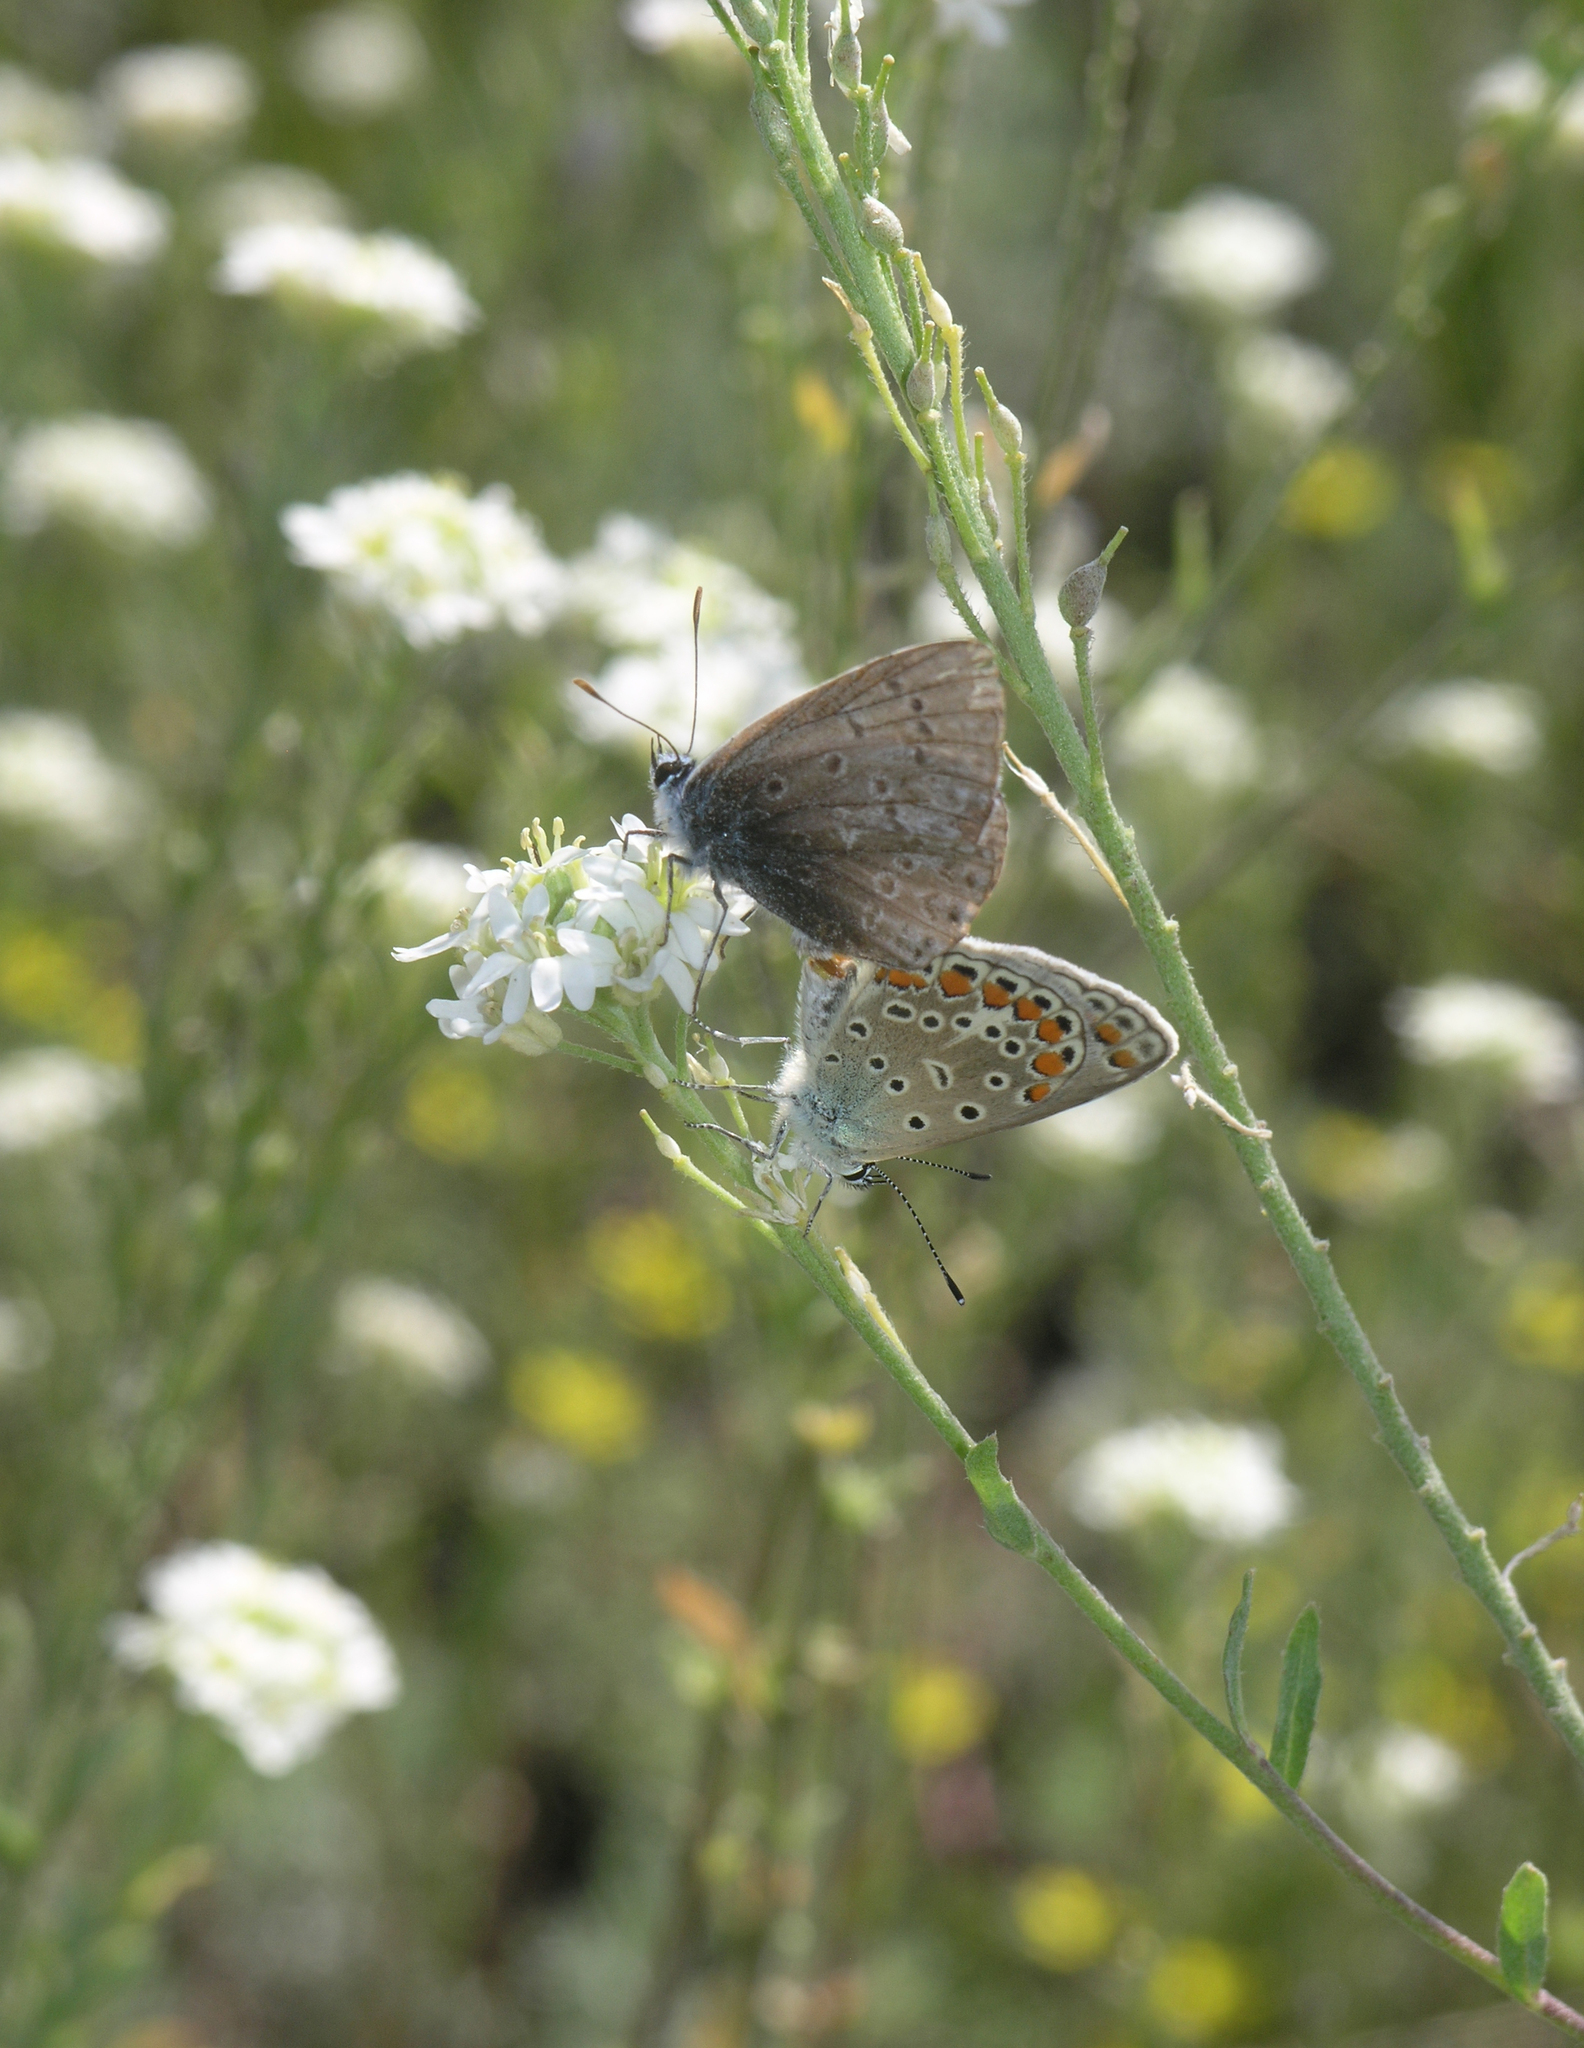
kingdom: Plantae
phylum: Tracheophyta
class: Magnoliopsida
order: Brassicales
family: Brassicaceae
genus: Berteroa
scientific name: Berteroa incana
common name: Hoary alison
